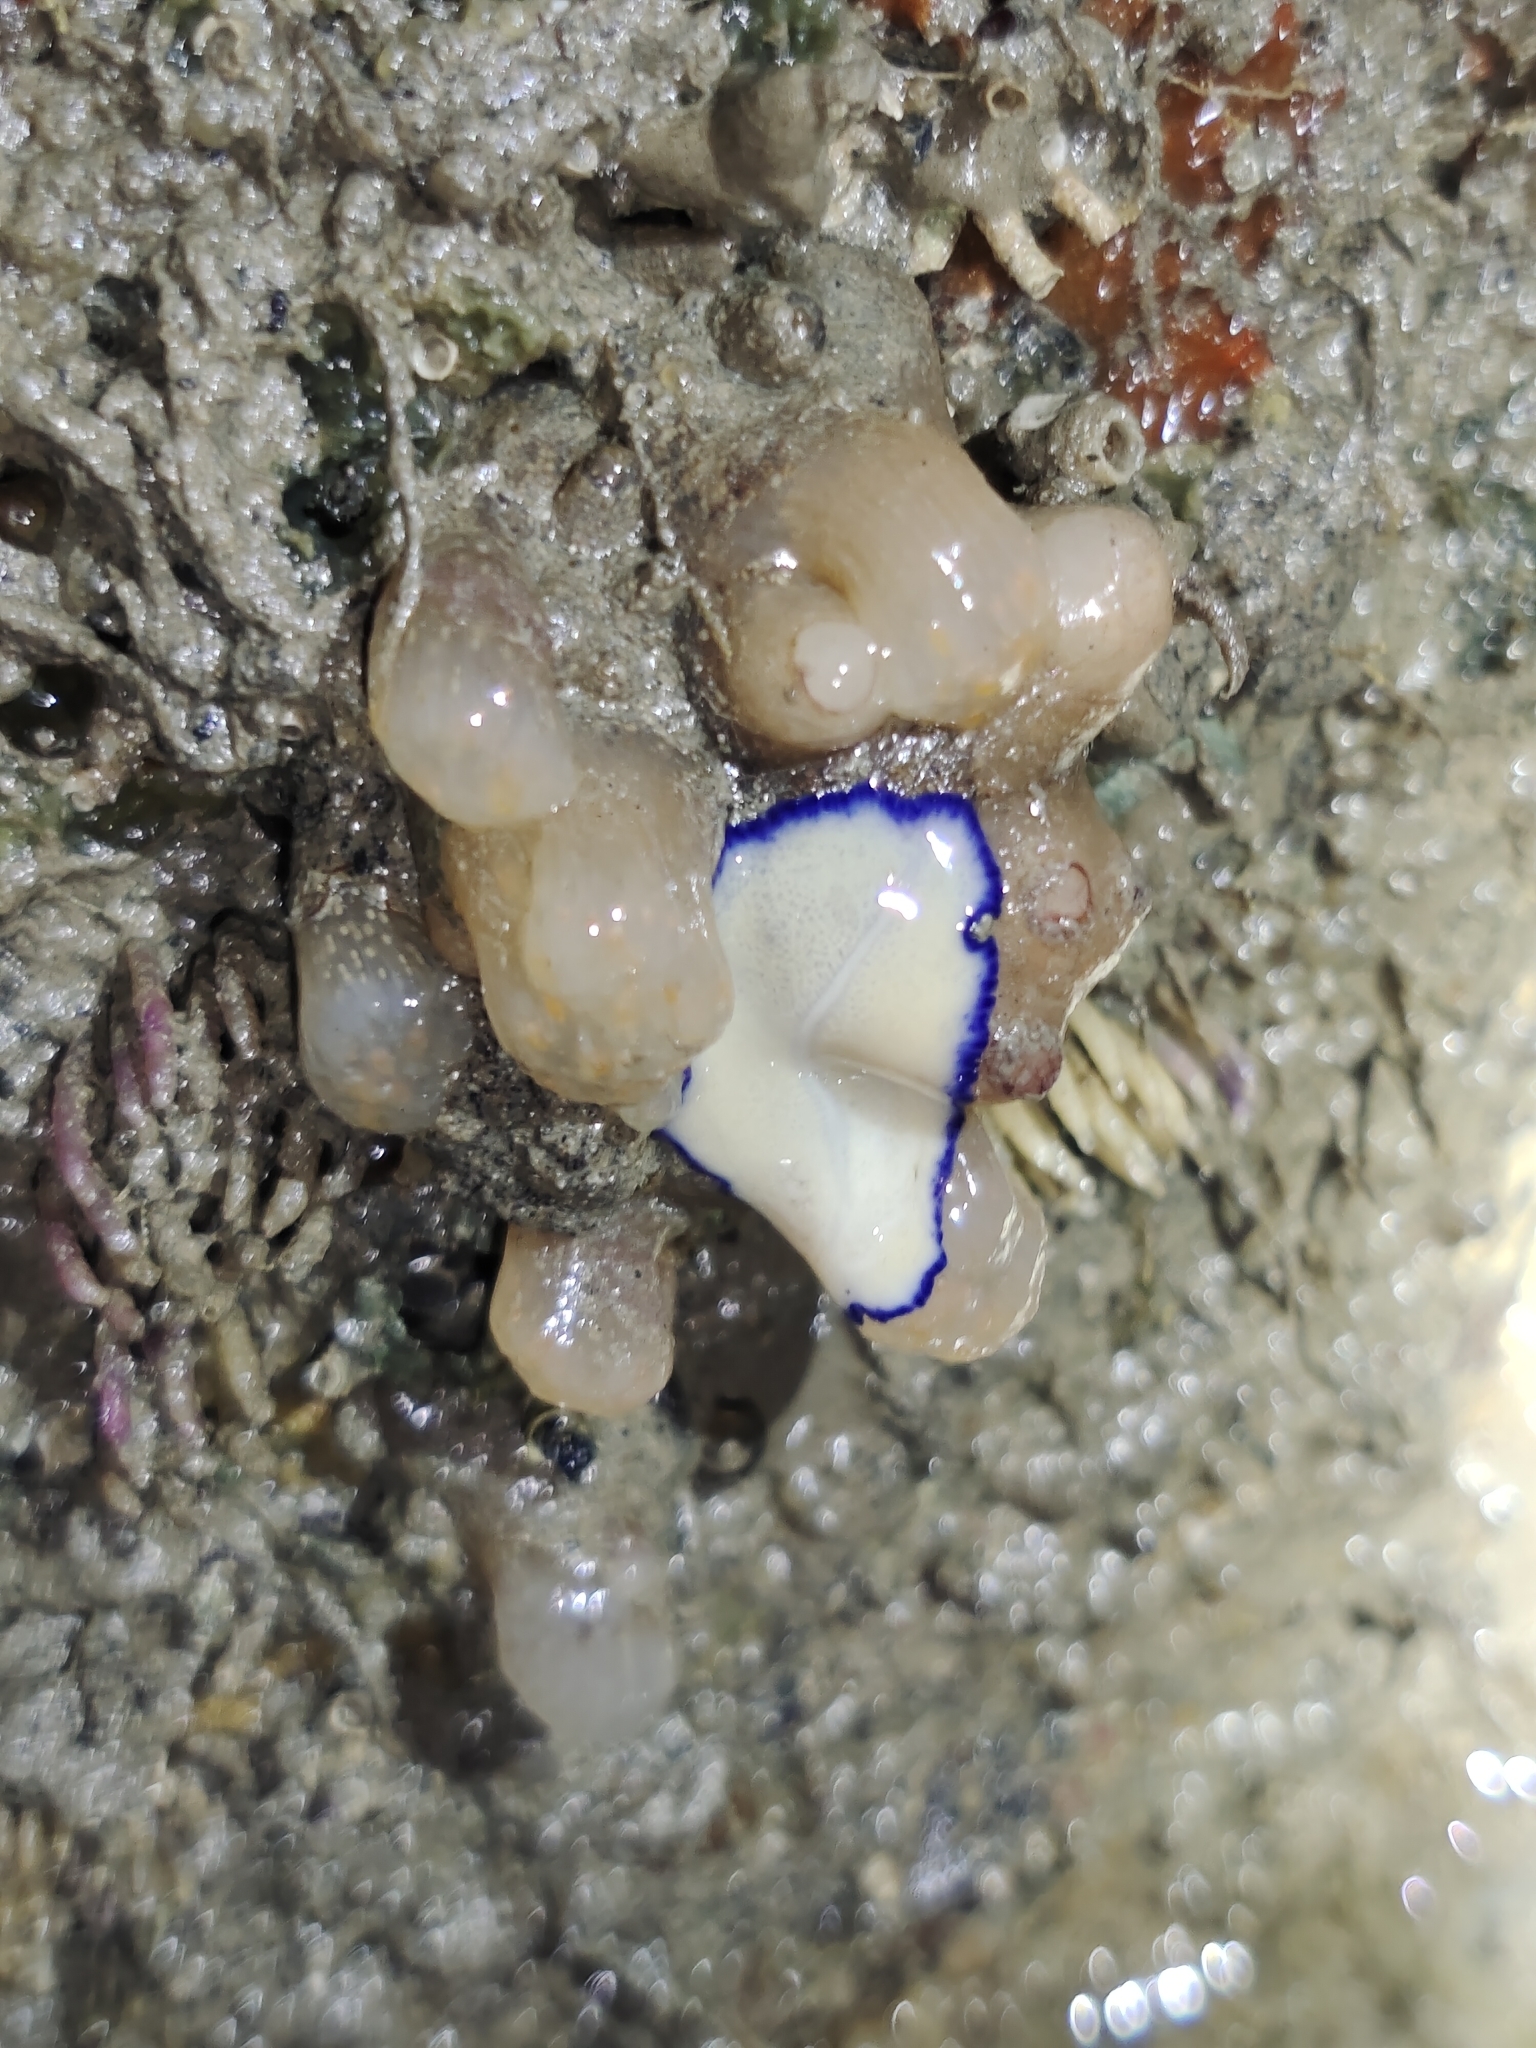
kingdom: Animalia
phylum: Platyhelminthes
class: Turbellaria
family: Pseudocerotidae
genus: Pseudoceros
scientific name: Pseudoceros indicus
